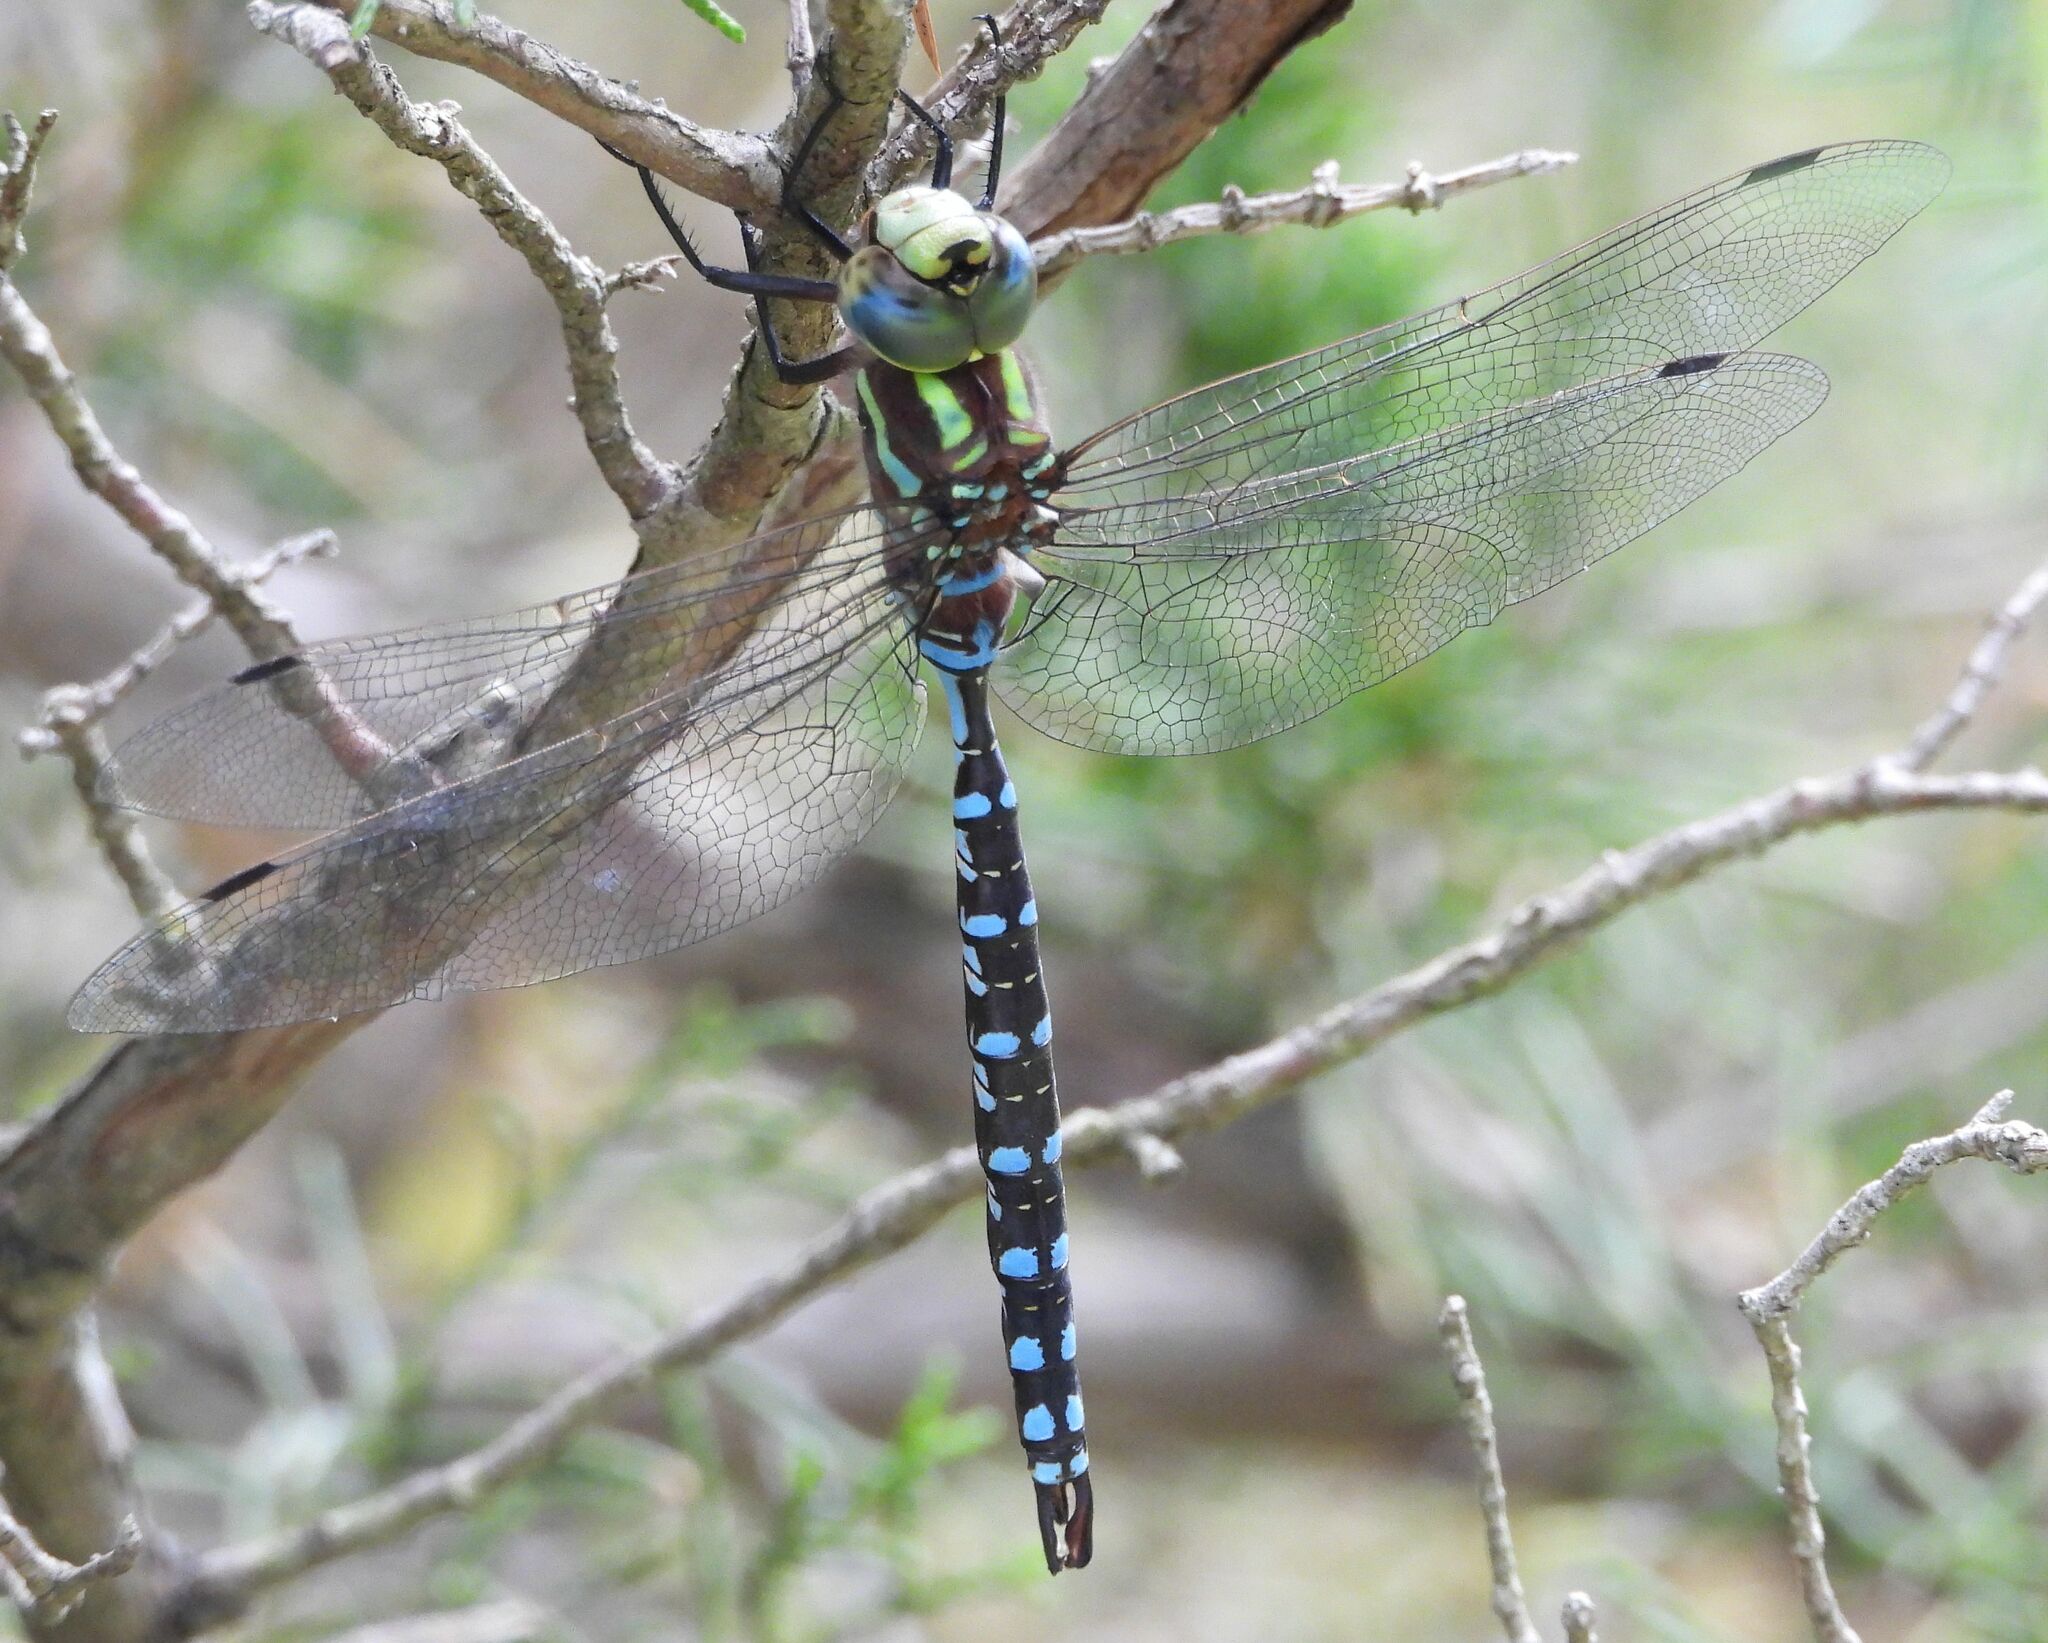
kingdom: Animalia
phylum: Arthropoda
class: Insecta
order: Odonata
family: Aeshnidae
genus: Aeshna
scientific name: Aeshna constricta
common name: Lance-tipped darner
